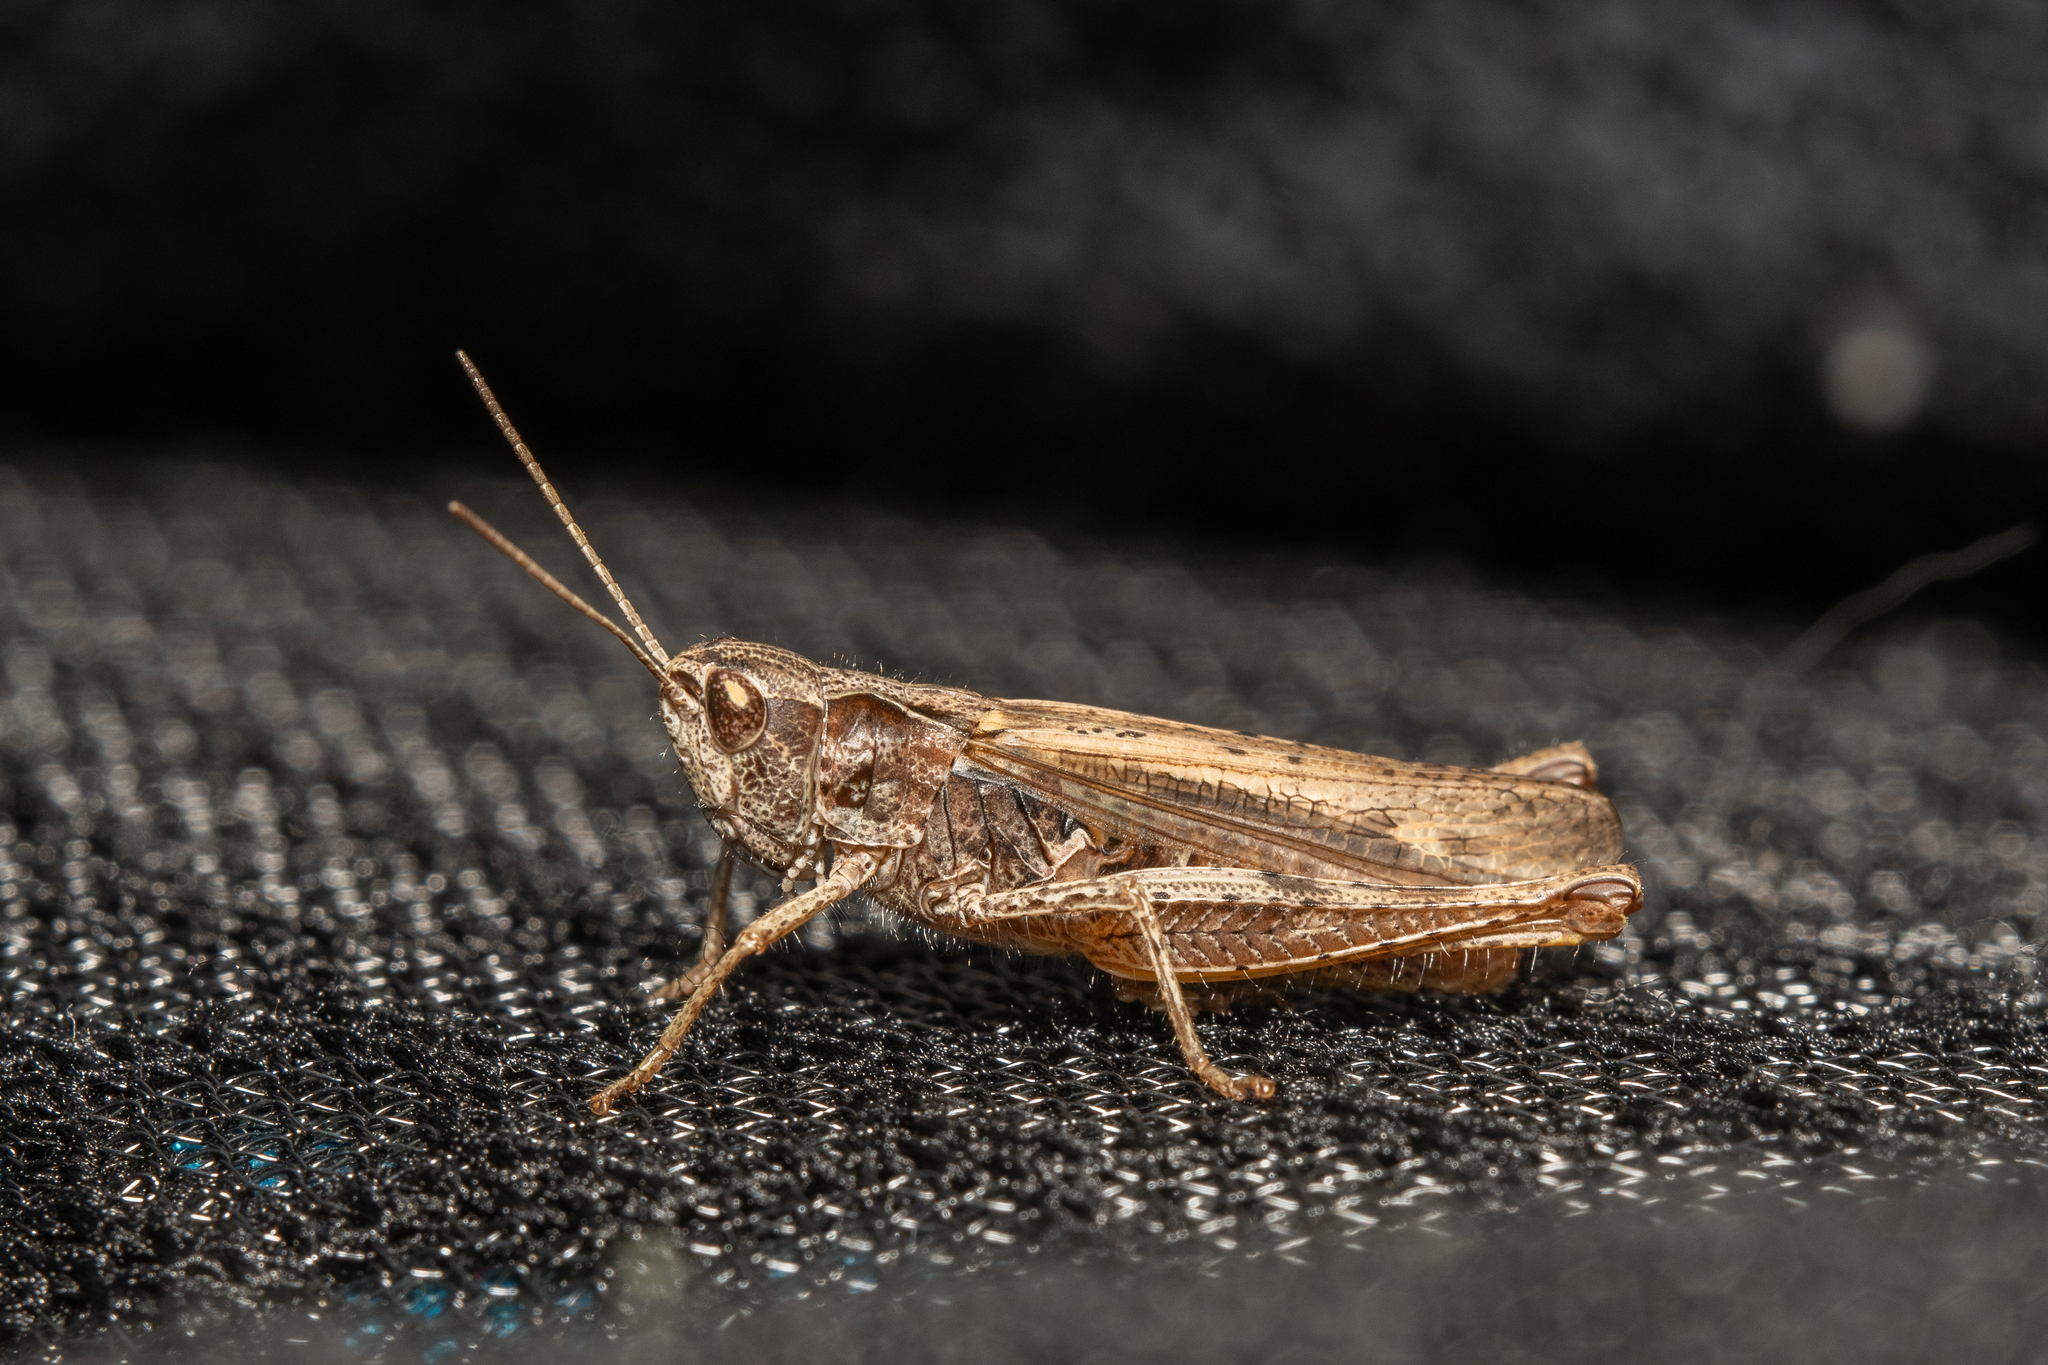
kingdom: Animalia
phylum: Arthropoda
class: Insecta
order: Orthoptera
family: Acrididae
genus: Chorthippus
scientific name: Chorthippus apricarius
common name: Upland field grasshopper
